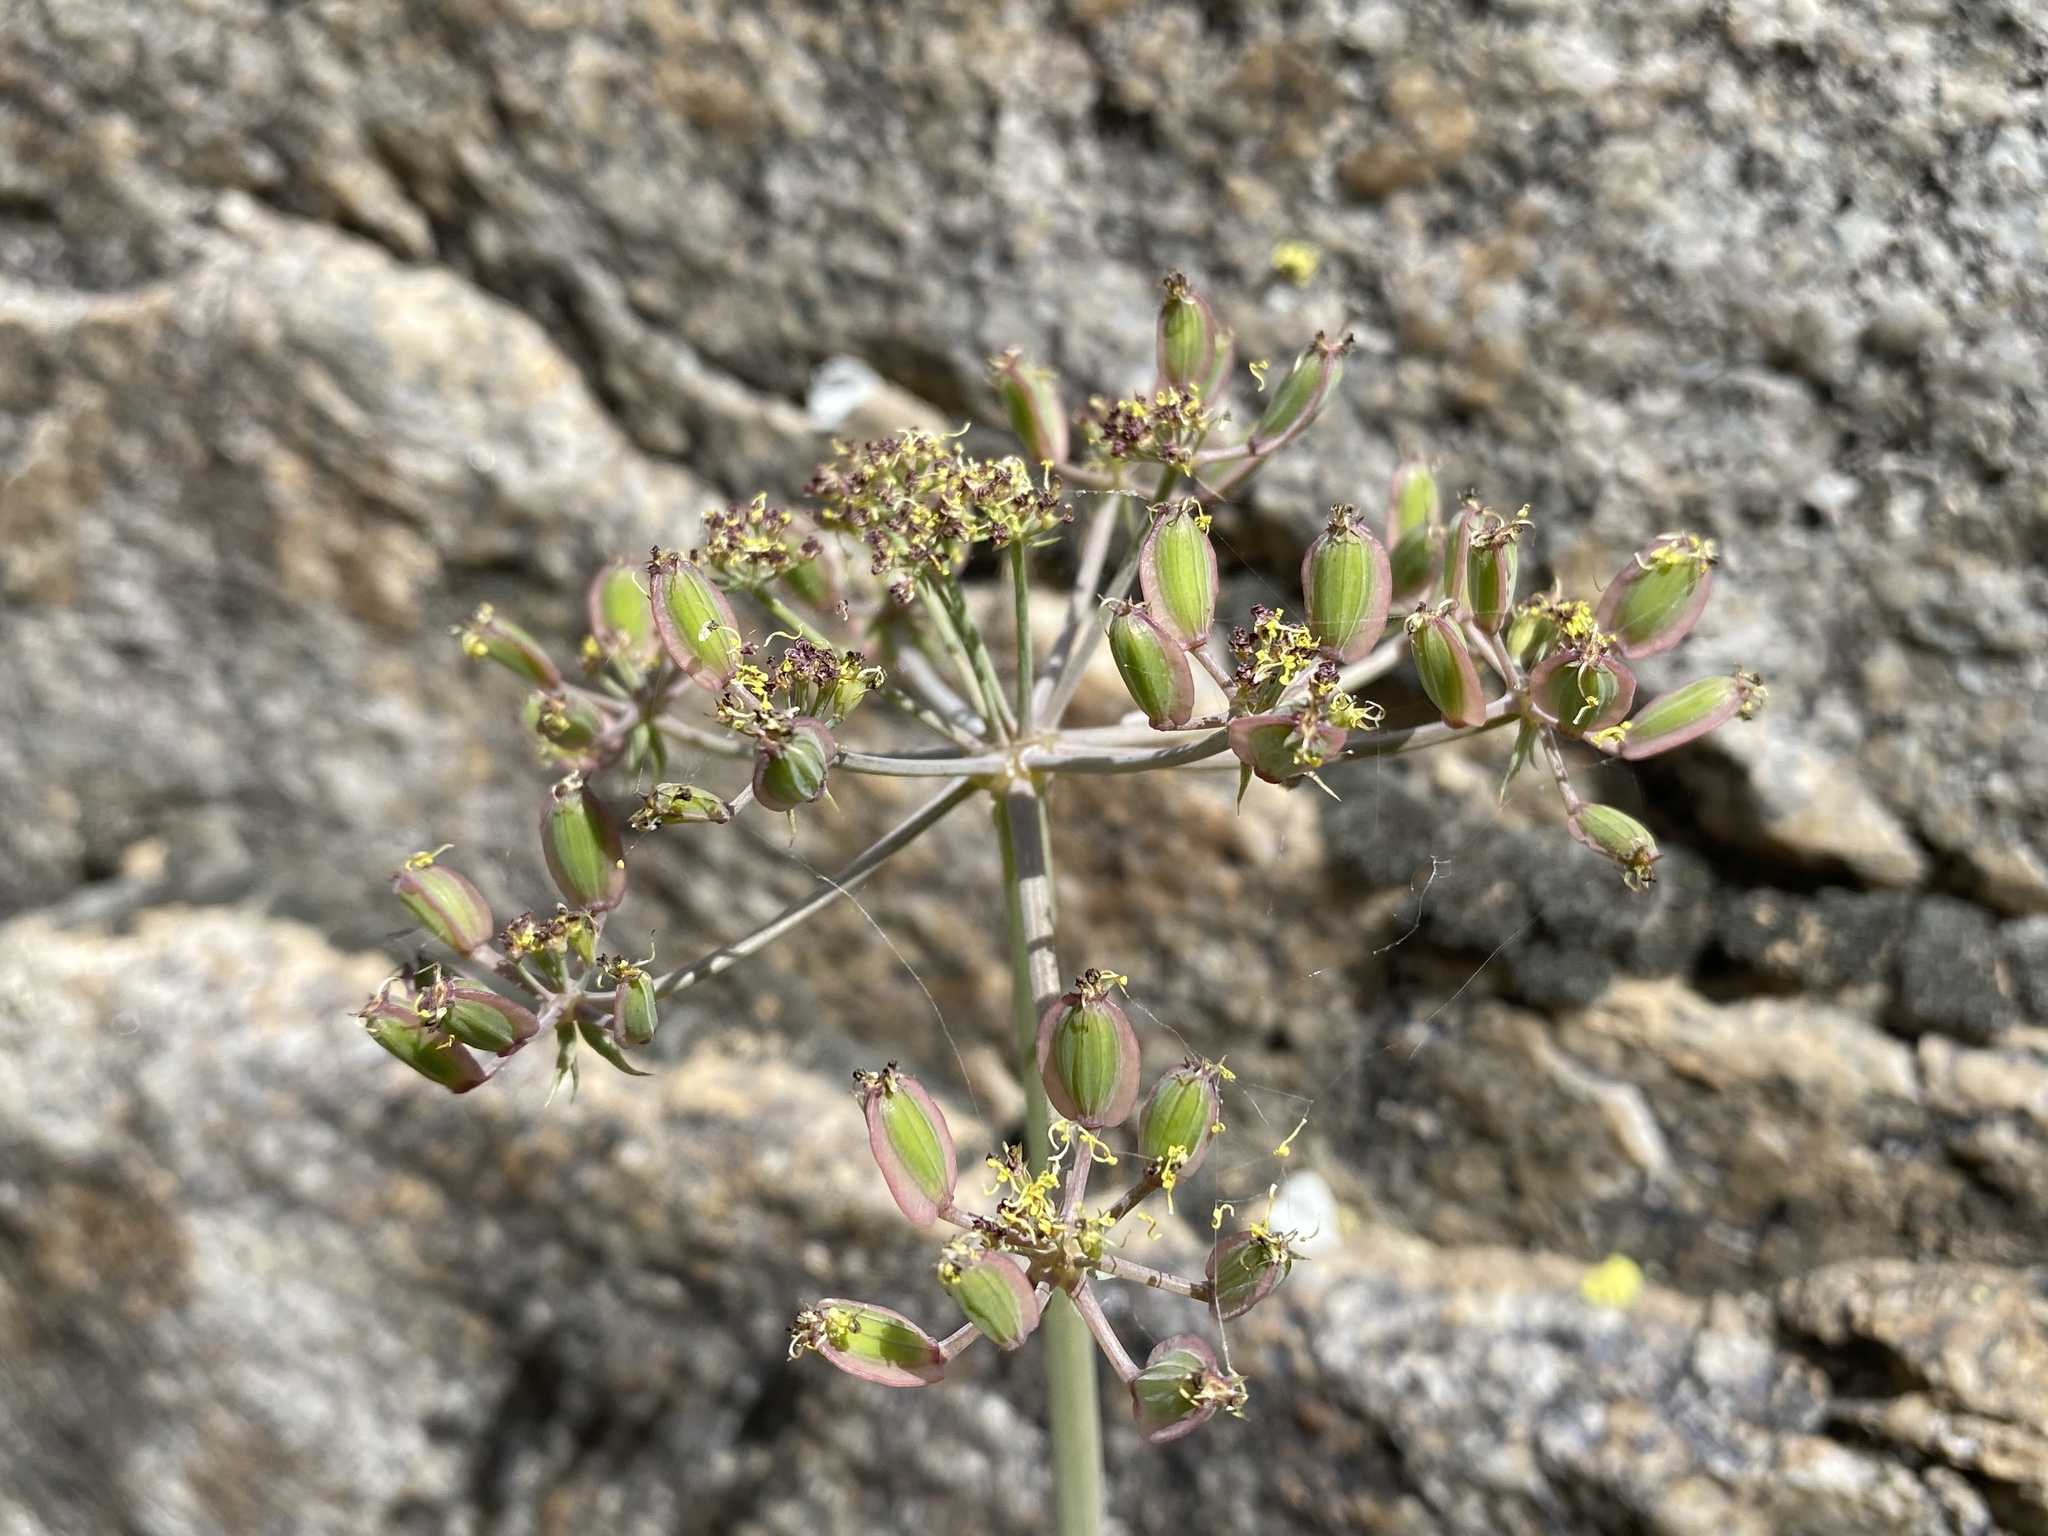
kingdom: Plantae
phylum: Tracheophyta
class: Magnoliopsida
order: Apiales
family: Apiaceae
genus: Lomatium
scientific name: Lomatium rigidum
